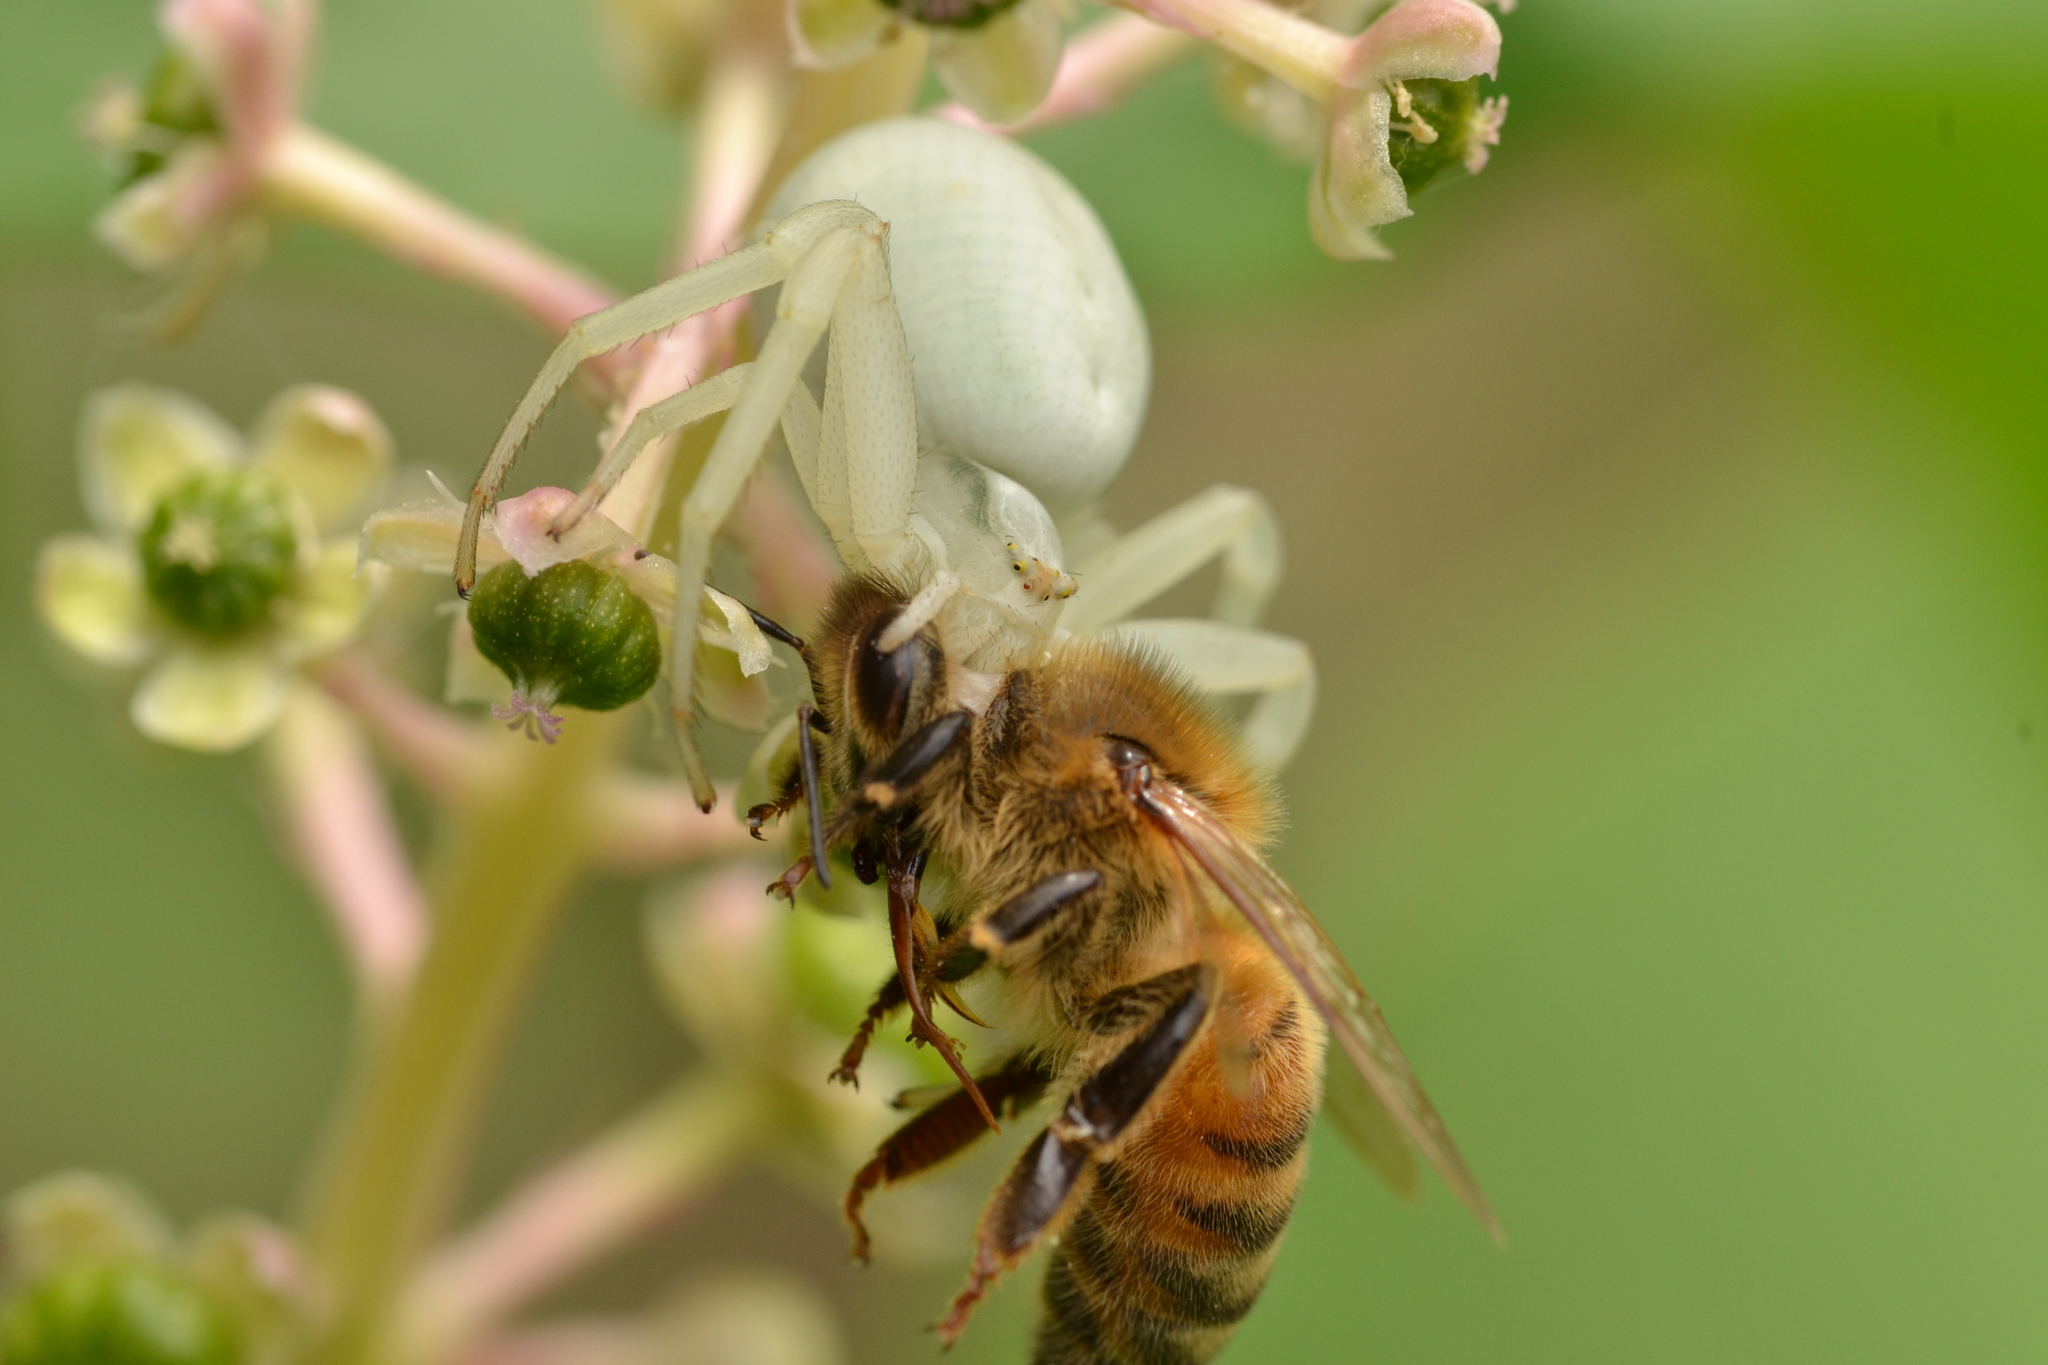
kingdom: Animalia
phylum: Arthropoda
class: Arachnida
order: Araneae
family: Thomisidae
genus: Misumena
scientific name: Misumena vatia
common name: Goldenrod crab spider
